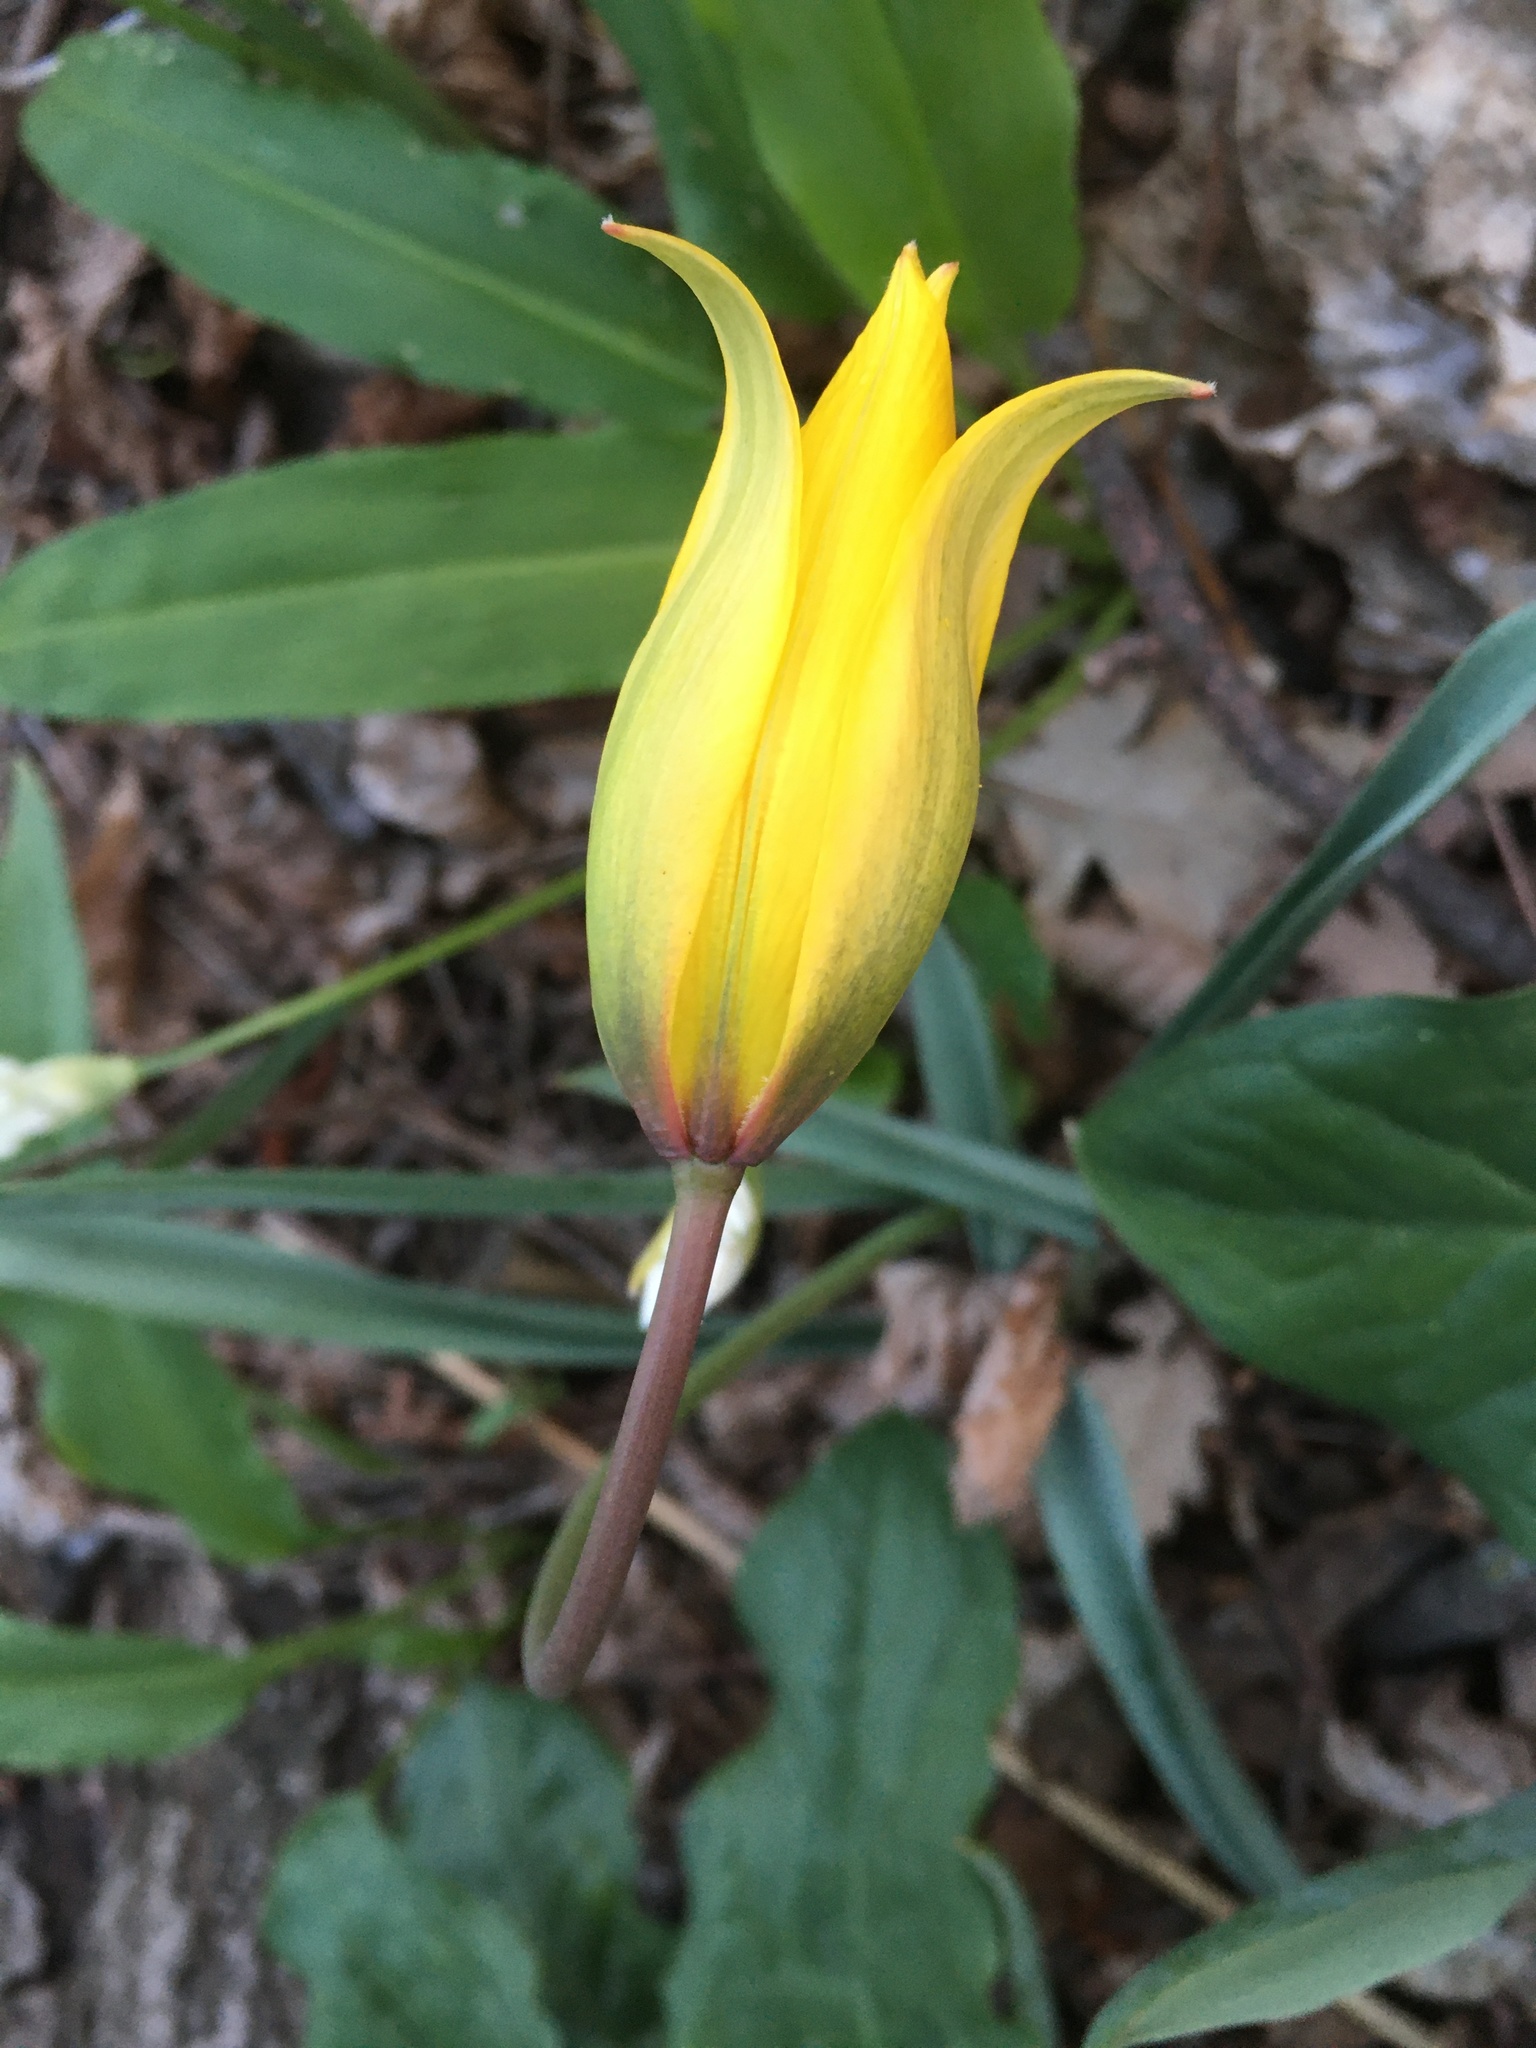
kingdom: Plantae
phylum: Tracheophyta
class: Liliopsida
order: Liliales
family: Liliaceae
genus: Tulipa
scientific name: Tulipa sylvestris
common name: Wild tulip
